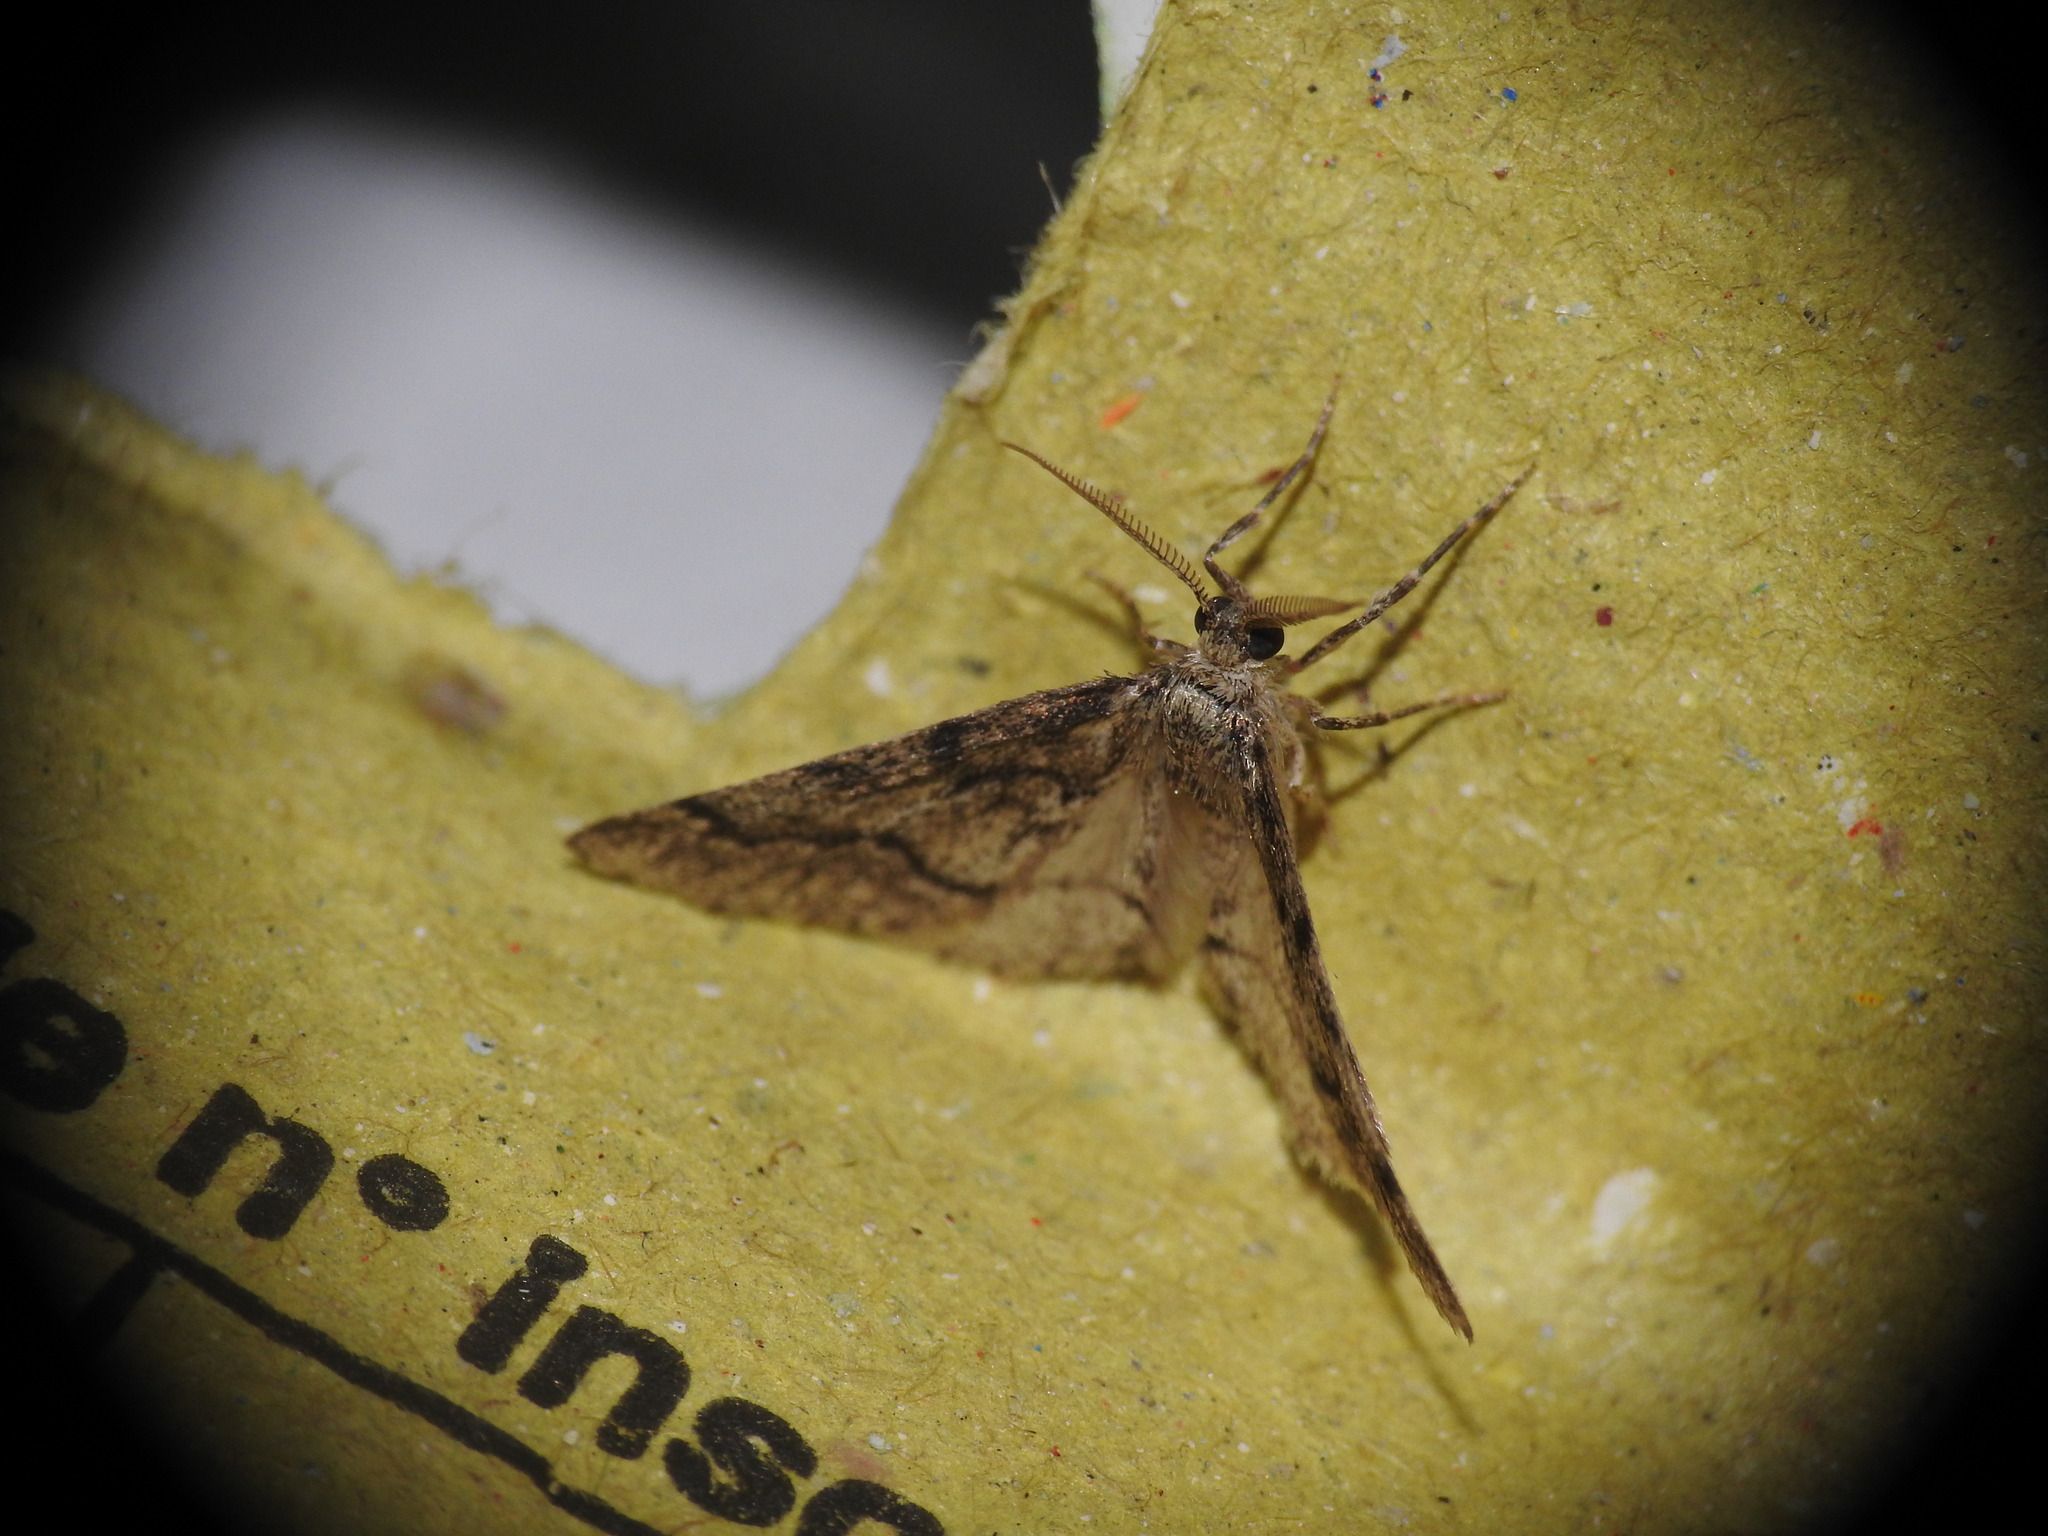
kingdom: Animalia
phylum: Arthropoda
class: Insecta
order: Lepidoptera
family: Geometridae
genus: Tephronia
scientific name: Tephronia sepiaria
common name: Dusky carpet
